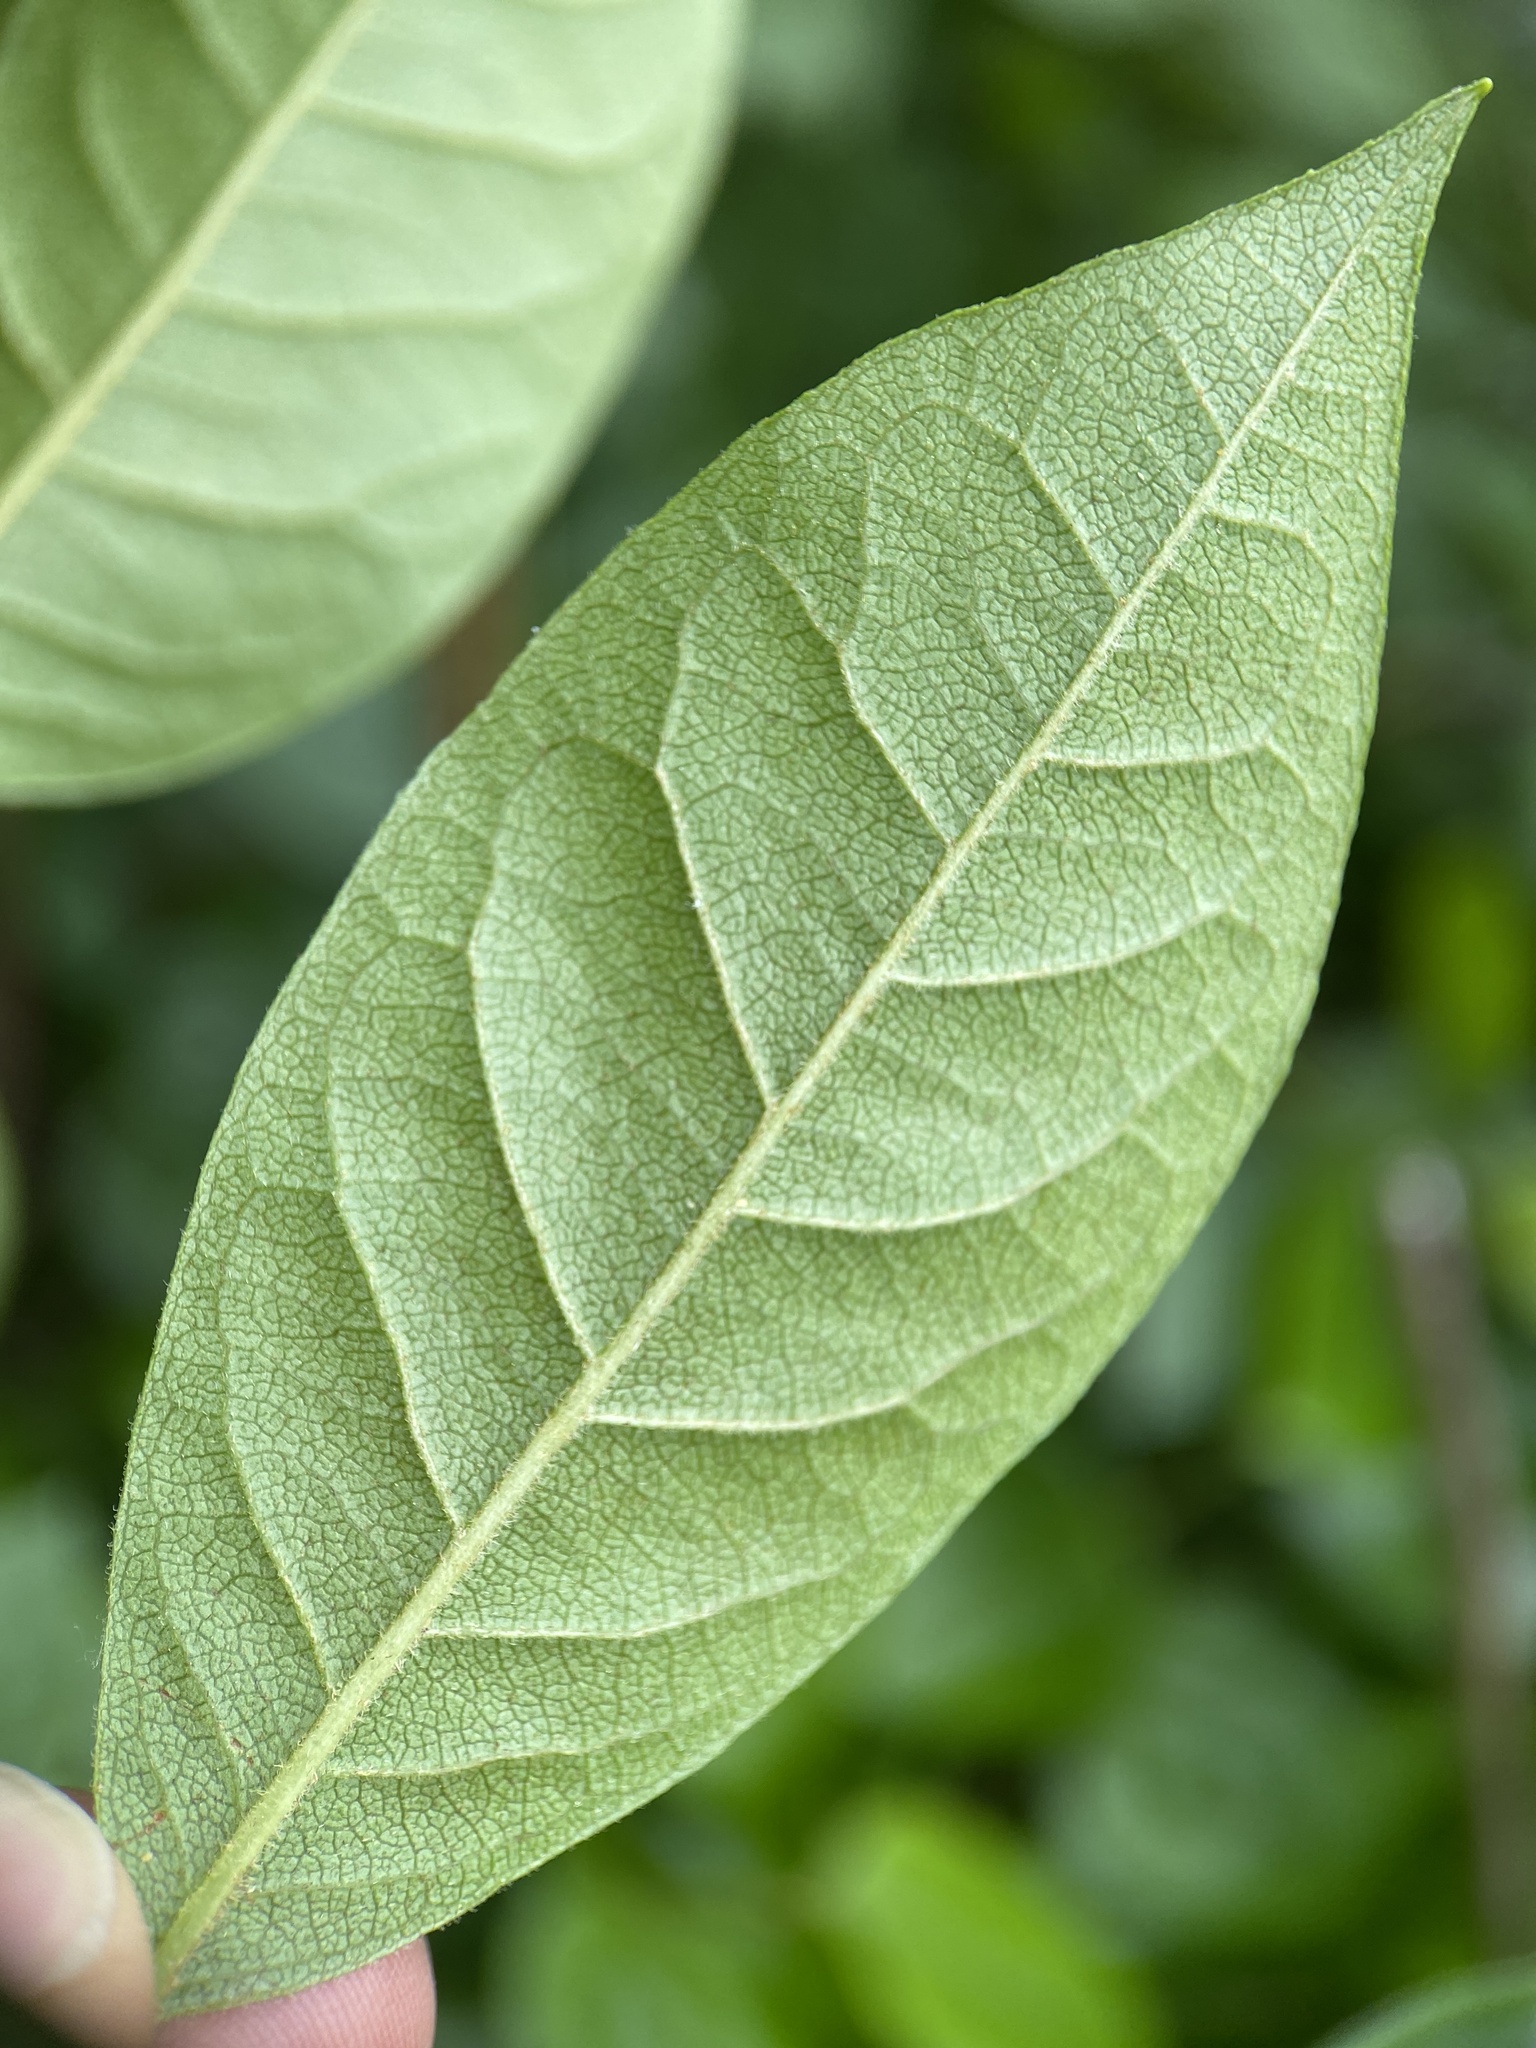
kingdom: Plantae
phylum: Tracheophyta
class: Magnoliopsida
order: Ericales
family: Ericaceae
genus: Lyonia
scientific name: Lyonia ligustrina
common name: Maleberry
